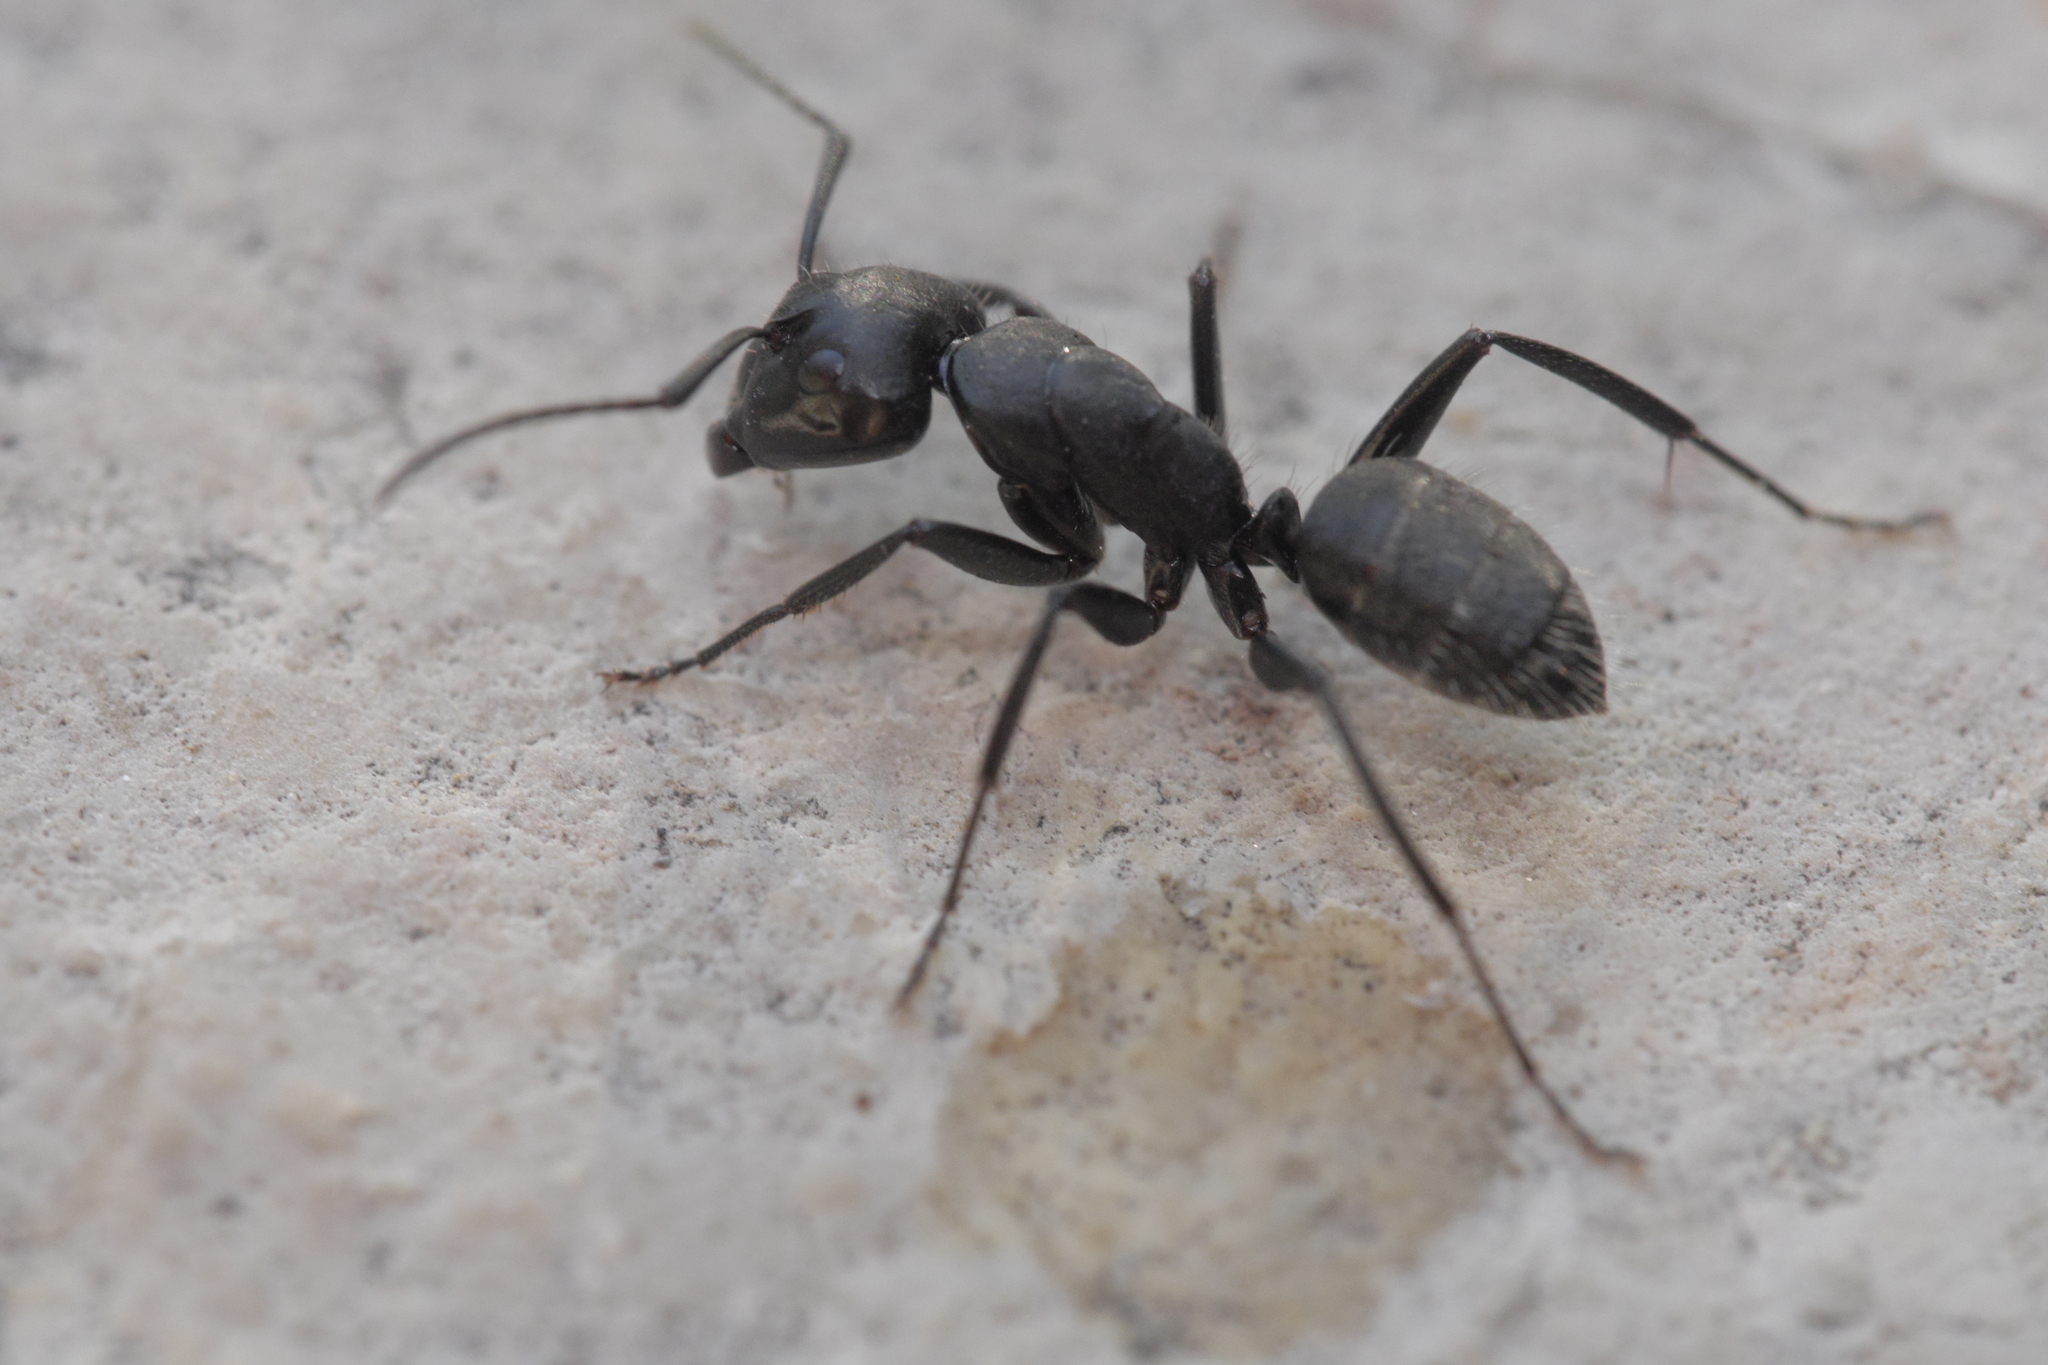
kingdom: Animalia
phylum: Arthropoda
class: Insecta
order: Hymenoptera
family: Formicidae
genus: Camponotus
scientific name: Camponotus vagus
